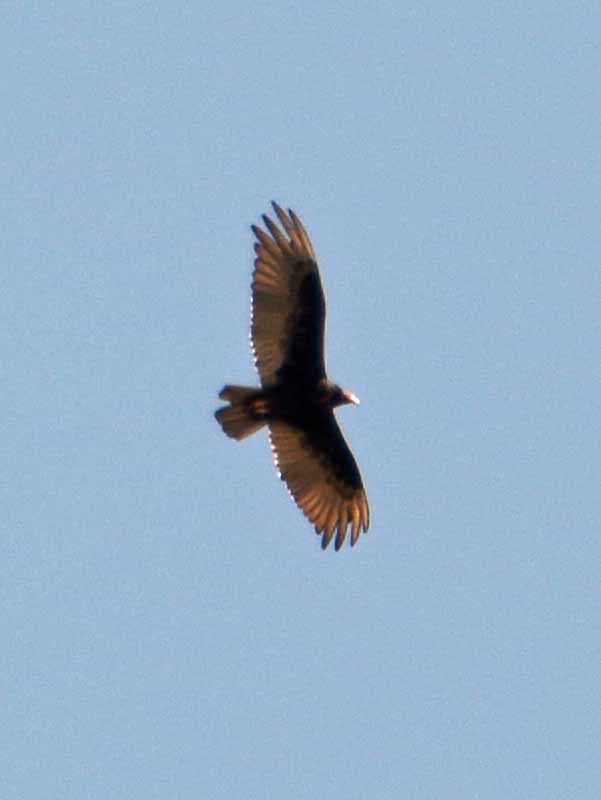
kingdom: Animalia
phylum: Chordata
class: Aves
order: Accipitriformes
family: Cathartidae
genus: Cathartes
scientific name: Cathartes aura
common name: Turkey vulture
